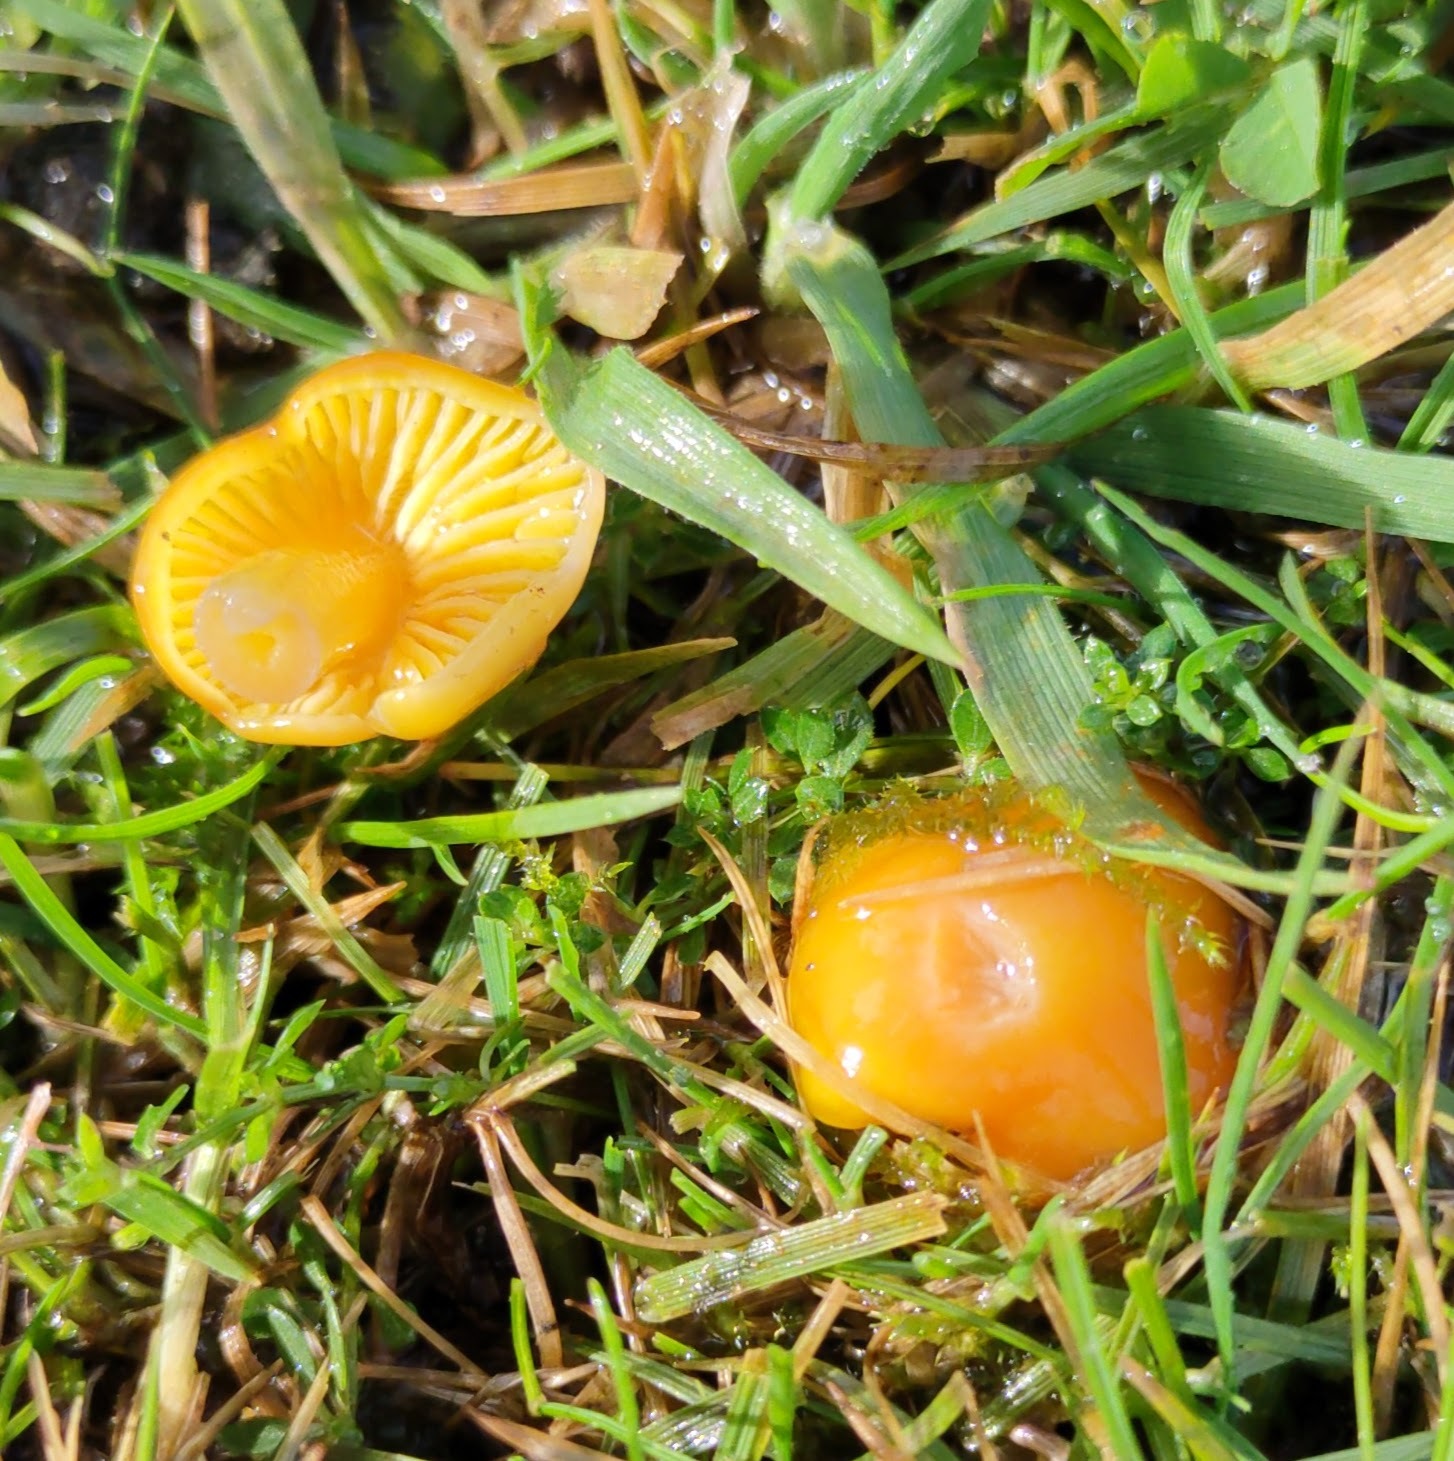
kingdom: Fungi
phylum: Basidiomycota
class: Agaricomycetes
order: Agaricales
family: Hygrophoraceae
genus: Hygrocybe
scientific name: Hygrocybe ceracea
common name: Butter waxcap
